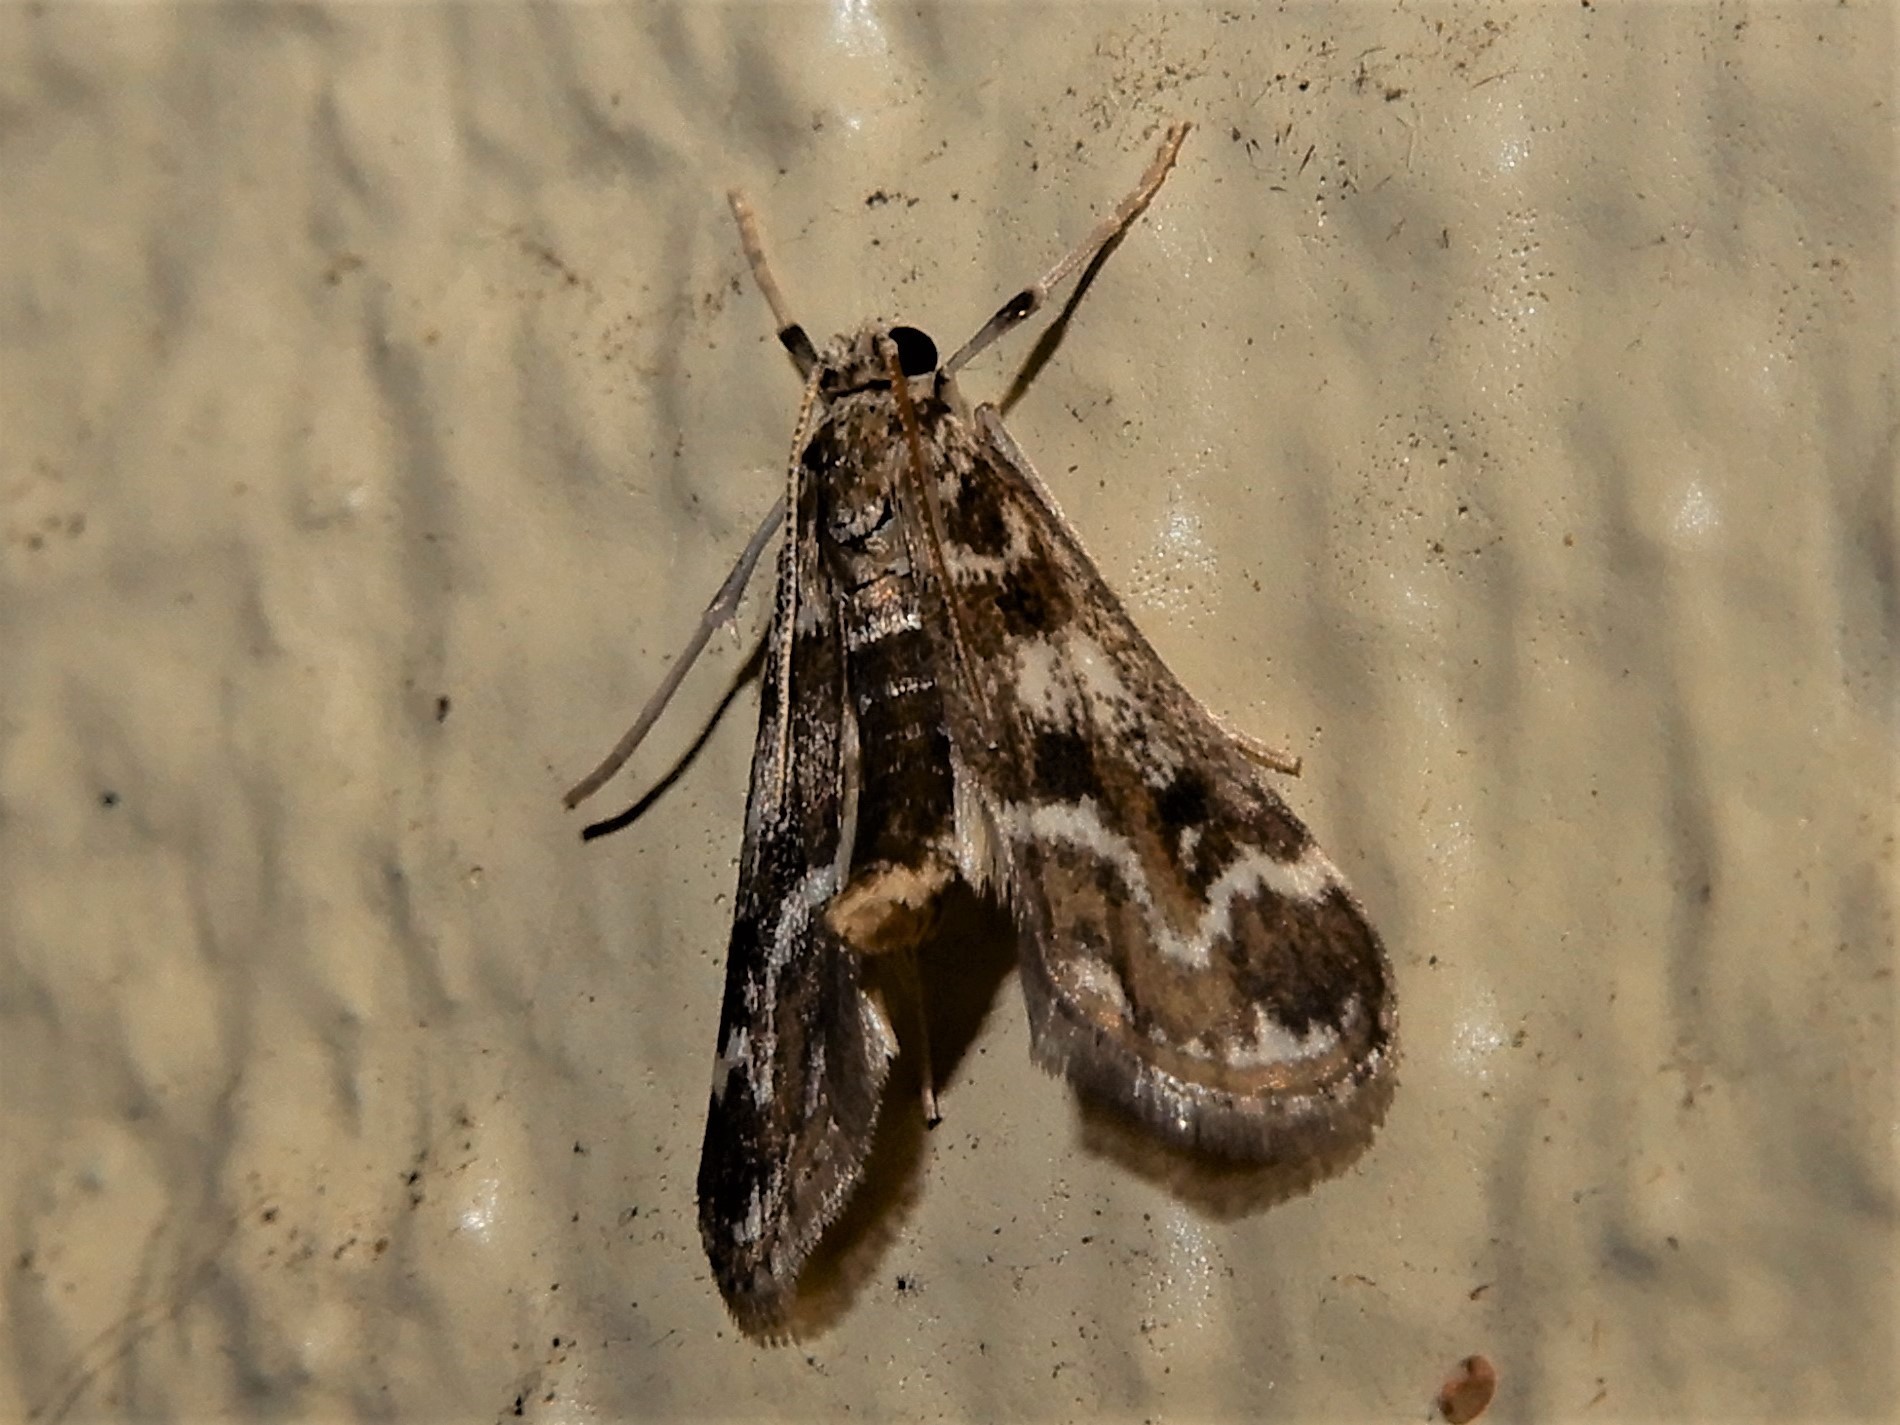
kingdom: Animalia
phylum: Arthropoda
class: Insecta
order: Lepidoptera
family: Crambidae
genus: Hygraula
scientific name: Hygraula nitens
